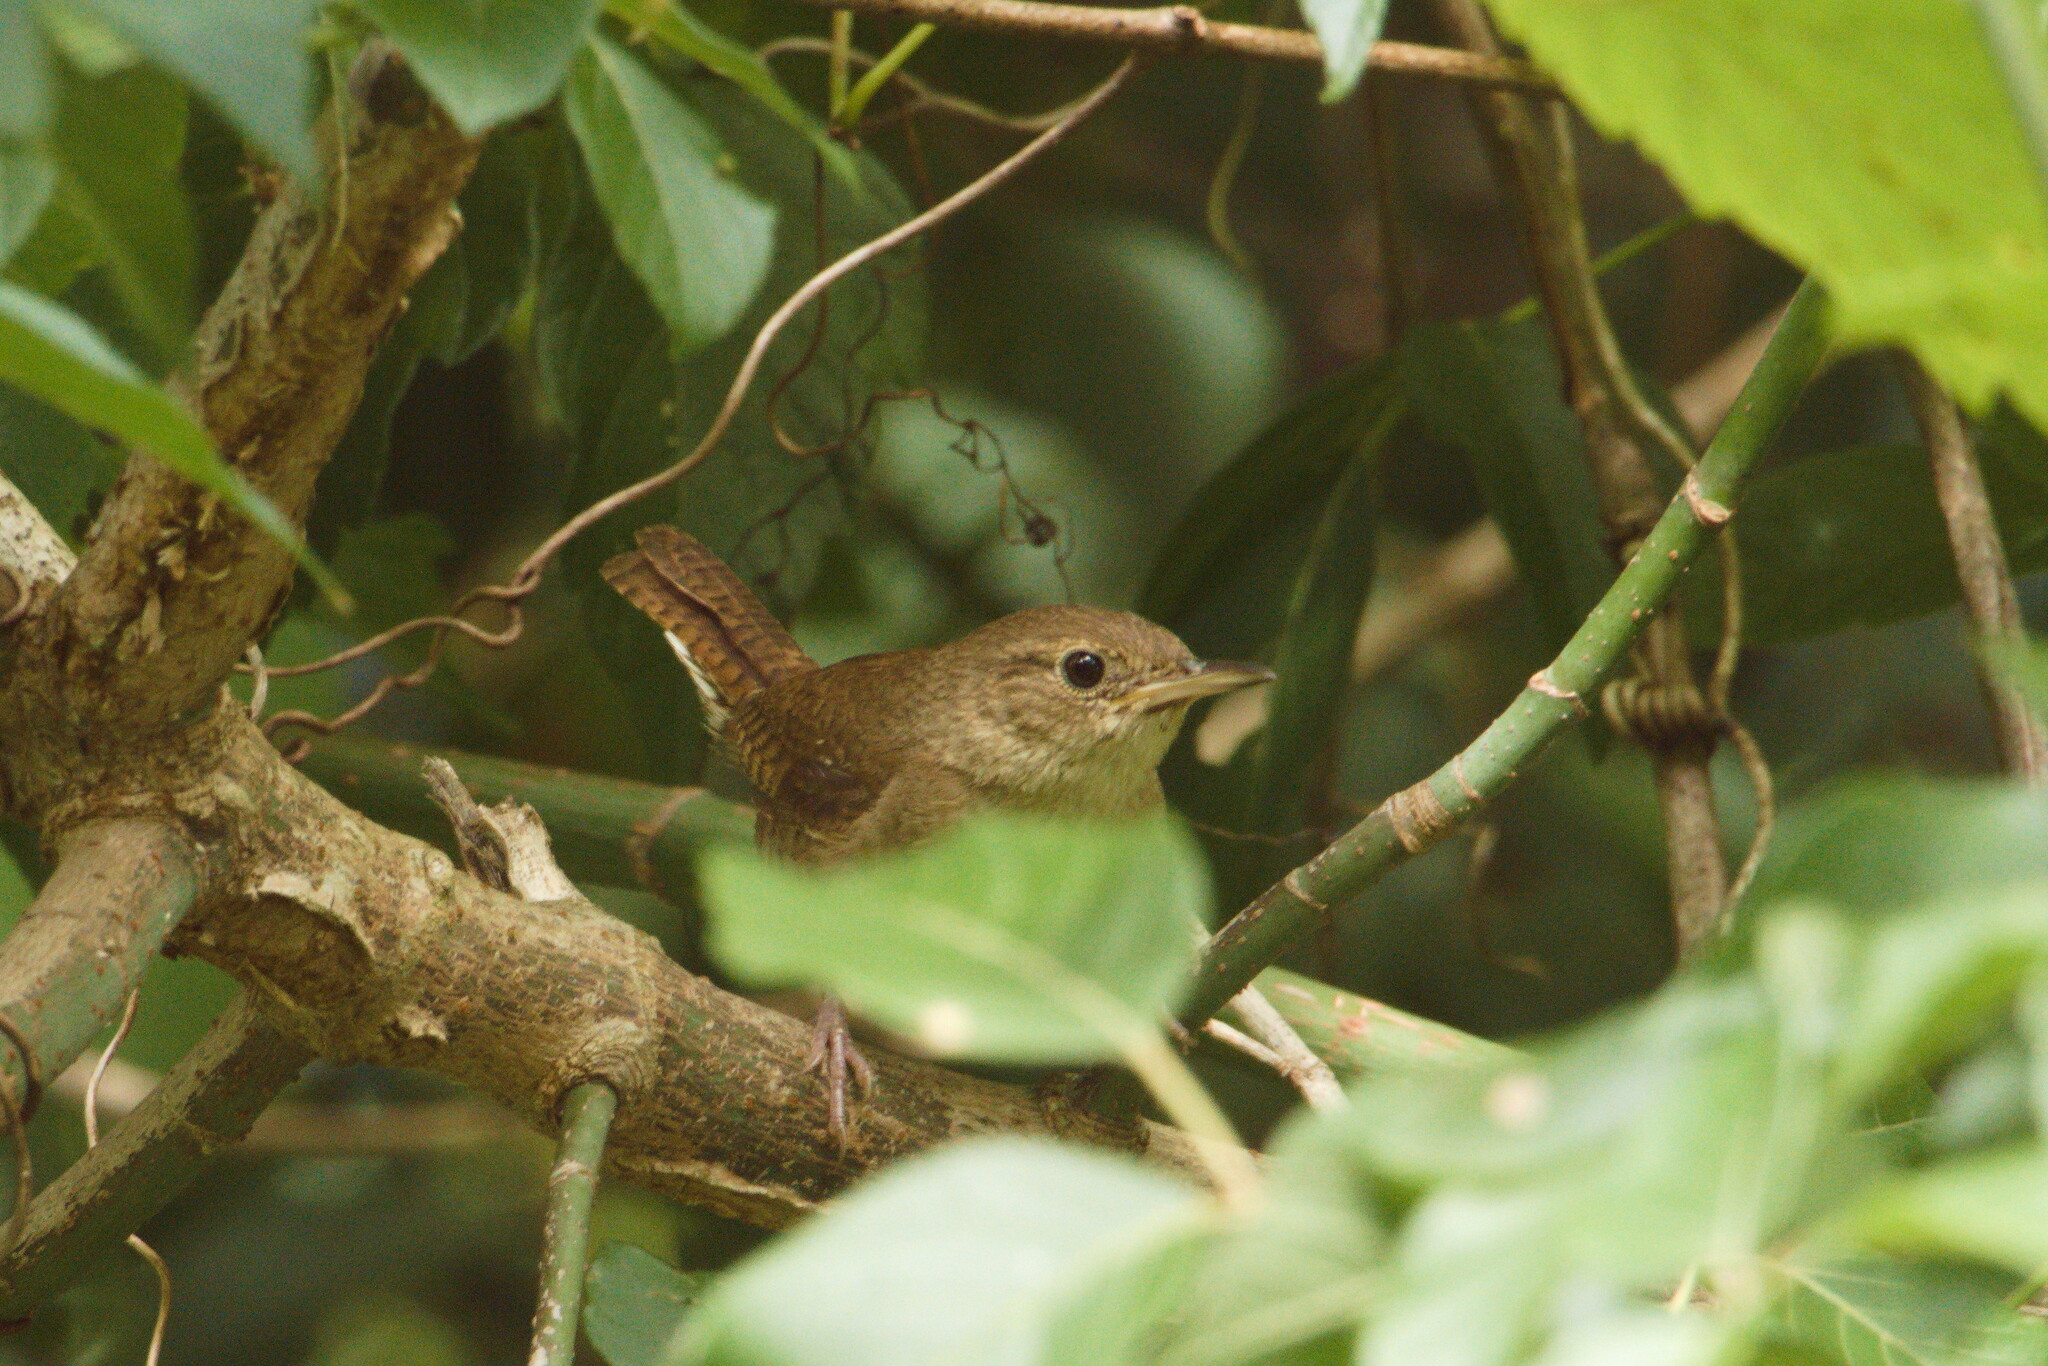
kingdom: Animalia
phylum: Chordata
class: Aves
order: Passeriformes
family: Troglodytidae
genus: Troglodytes
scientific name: Troglodytes aedon
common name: House wren
